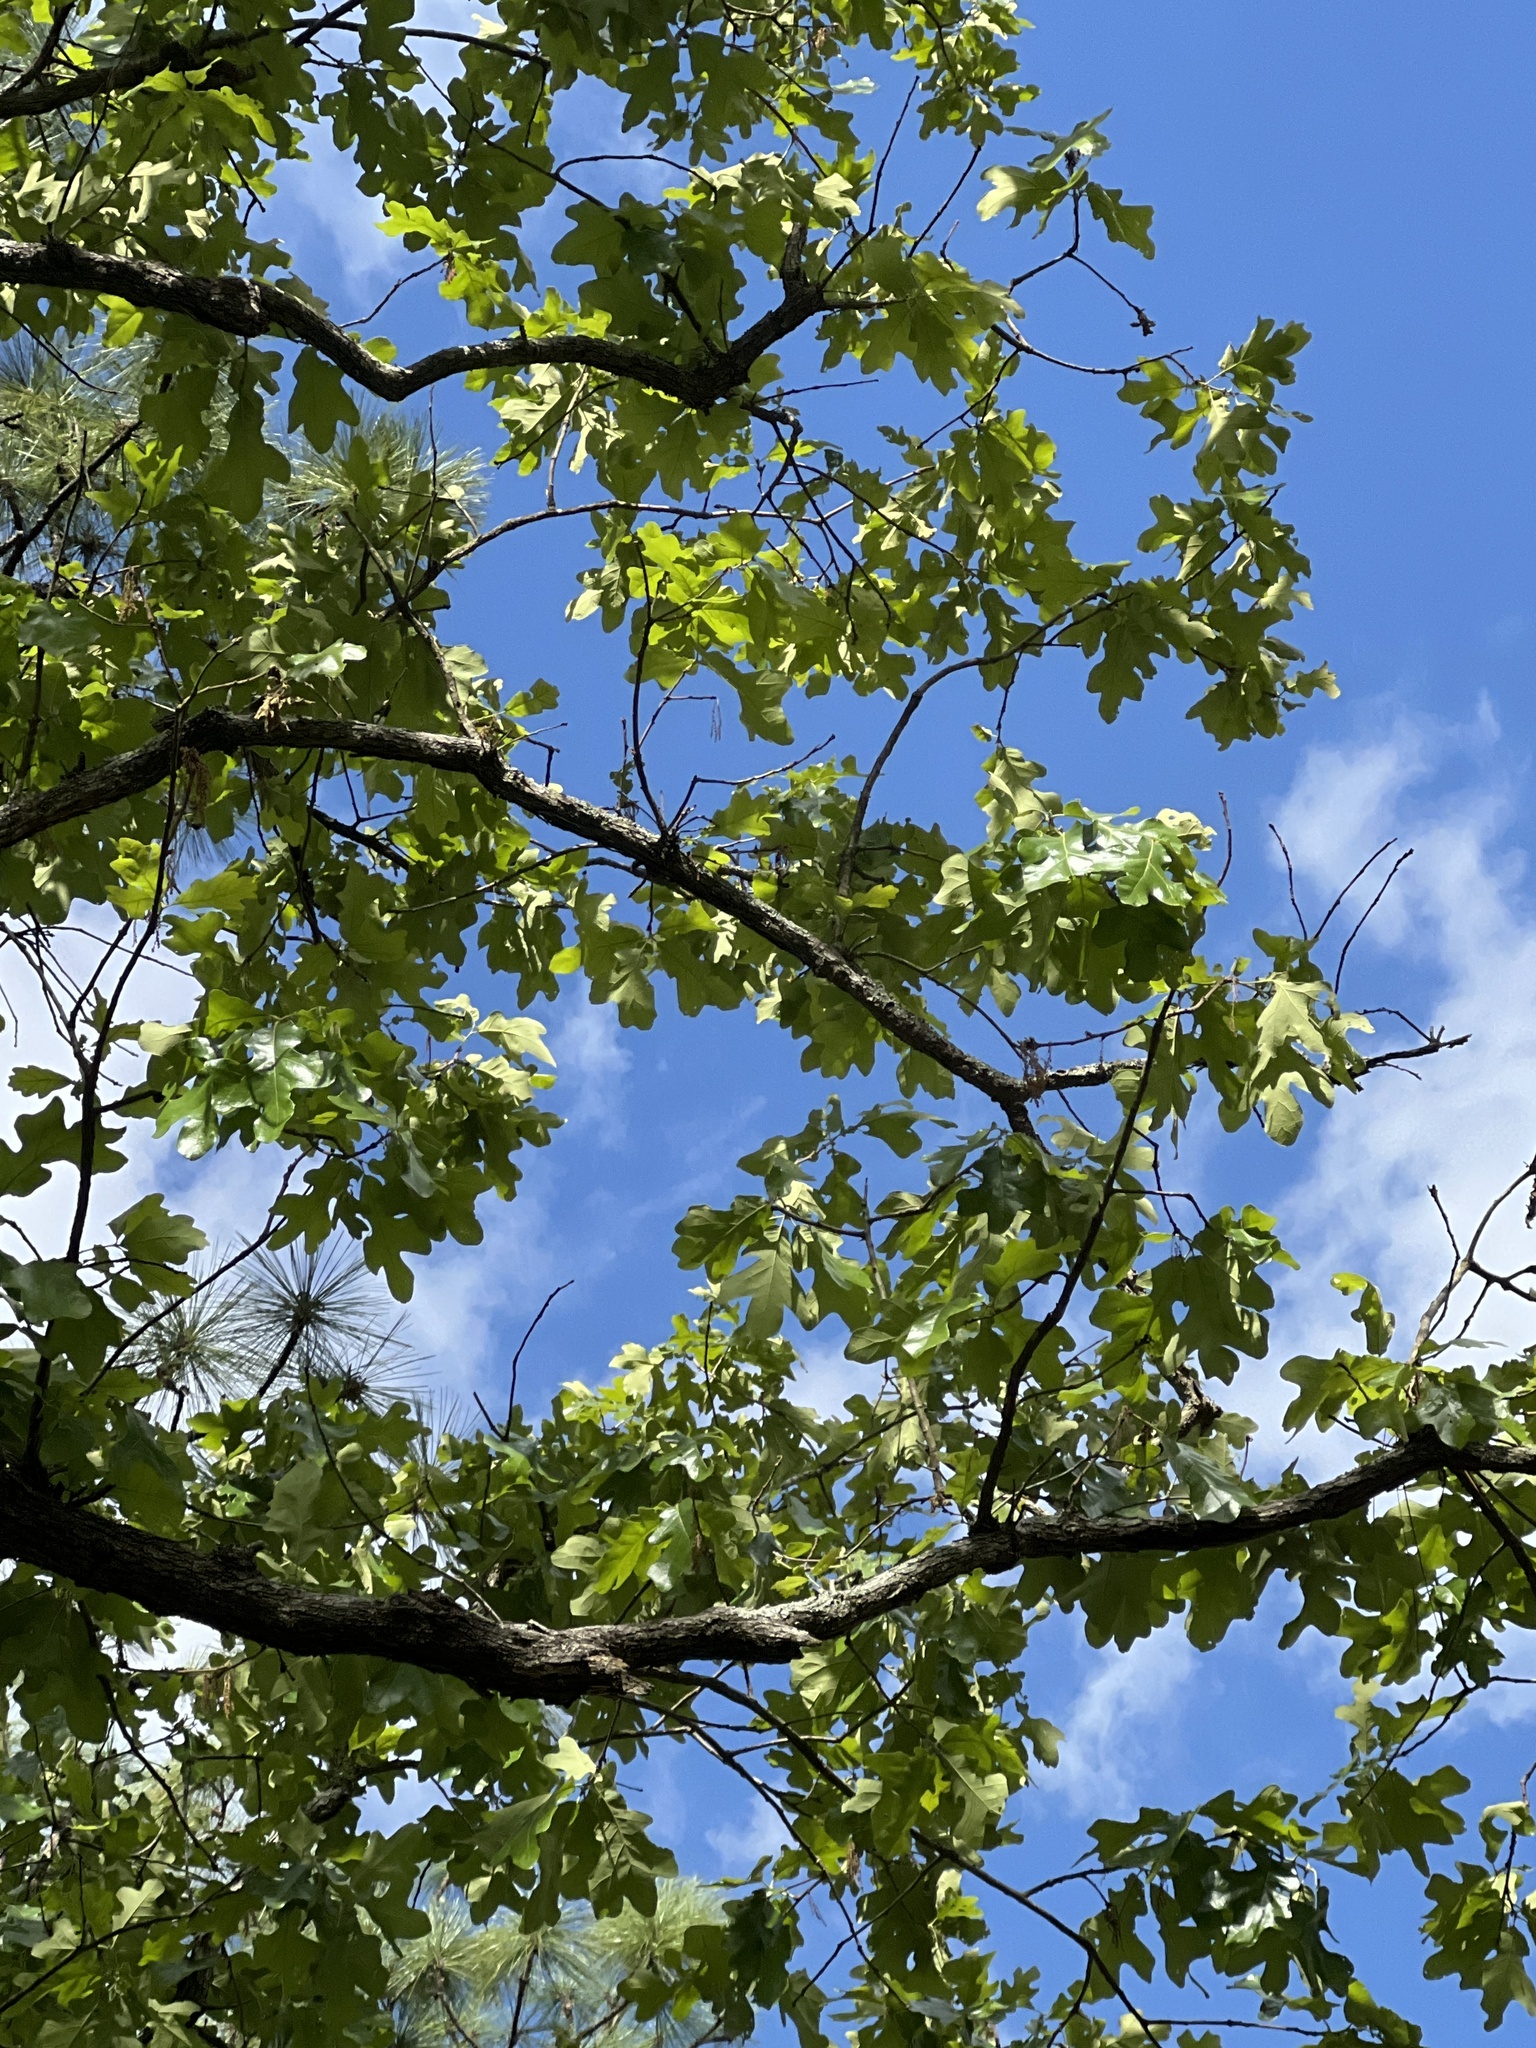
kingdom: Plantae
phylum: Tracheophyta
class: Magnoliopsida
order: Fagales
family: Fagaceae
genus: Quercus
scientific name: Quercus stellata
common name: Post oak
